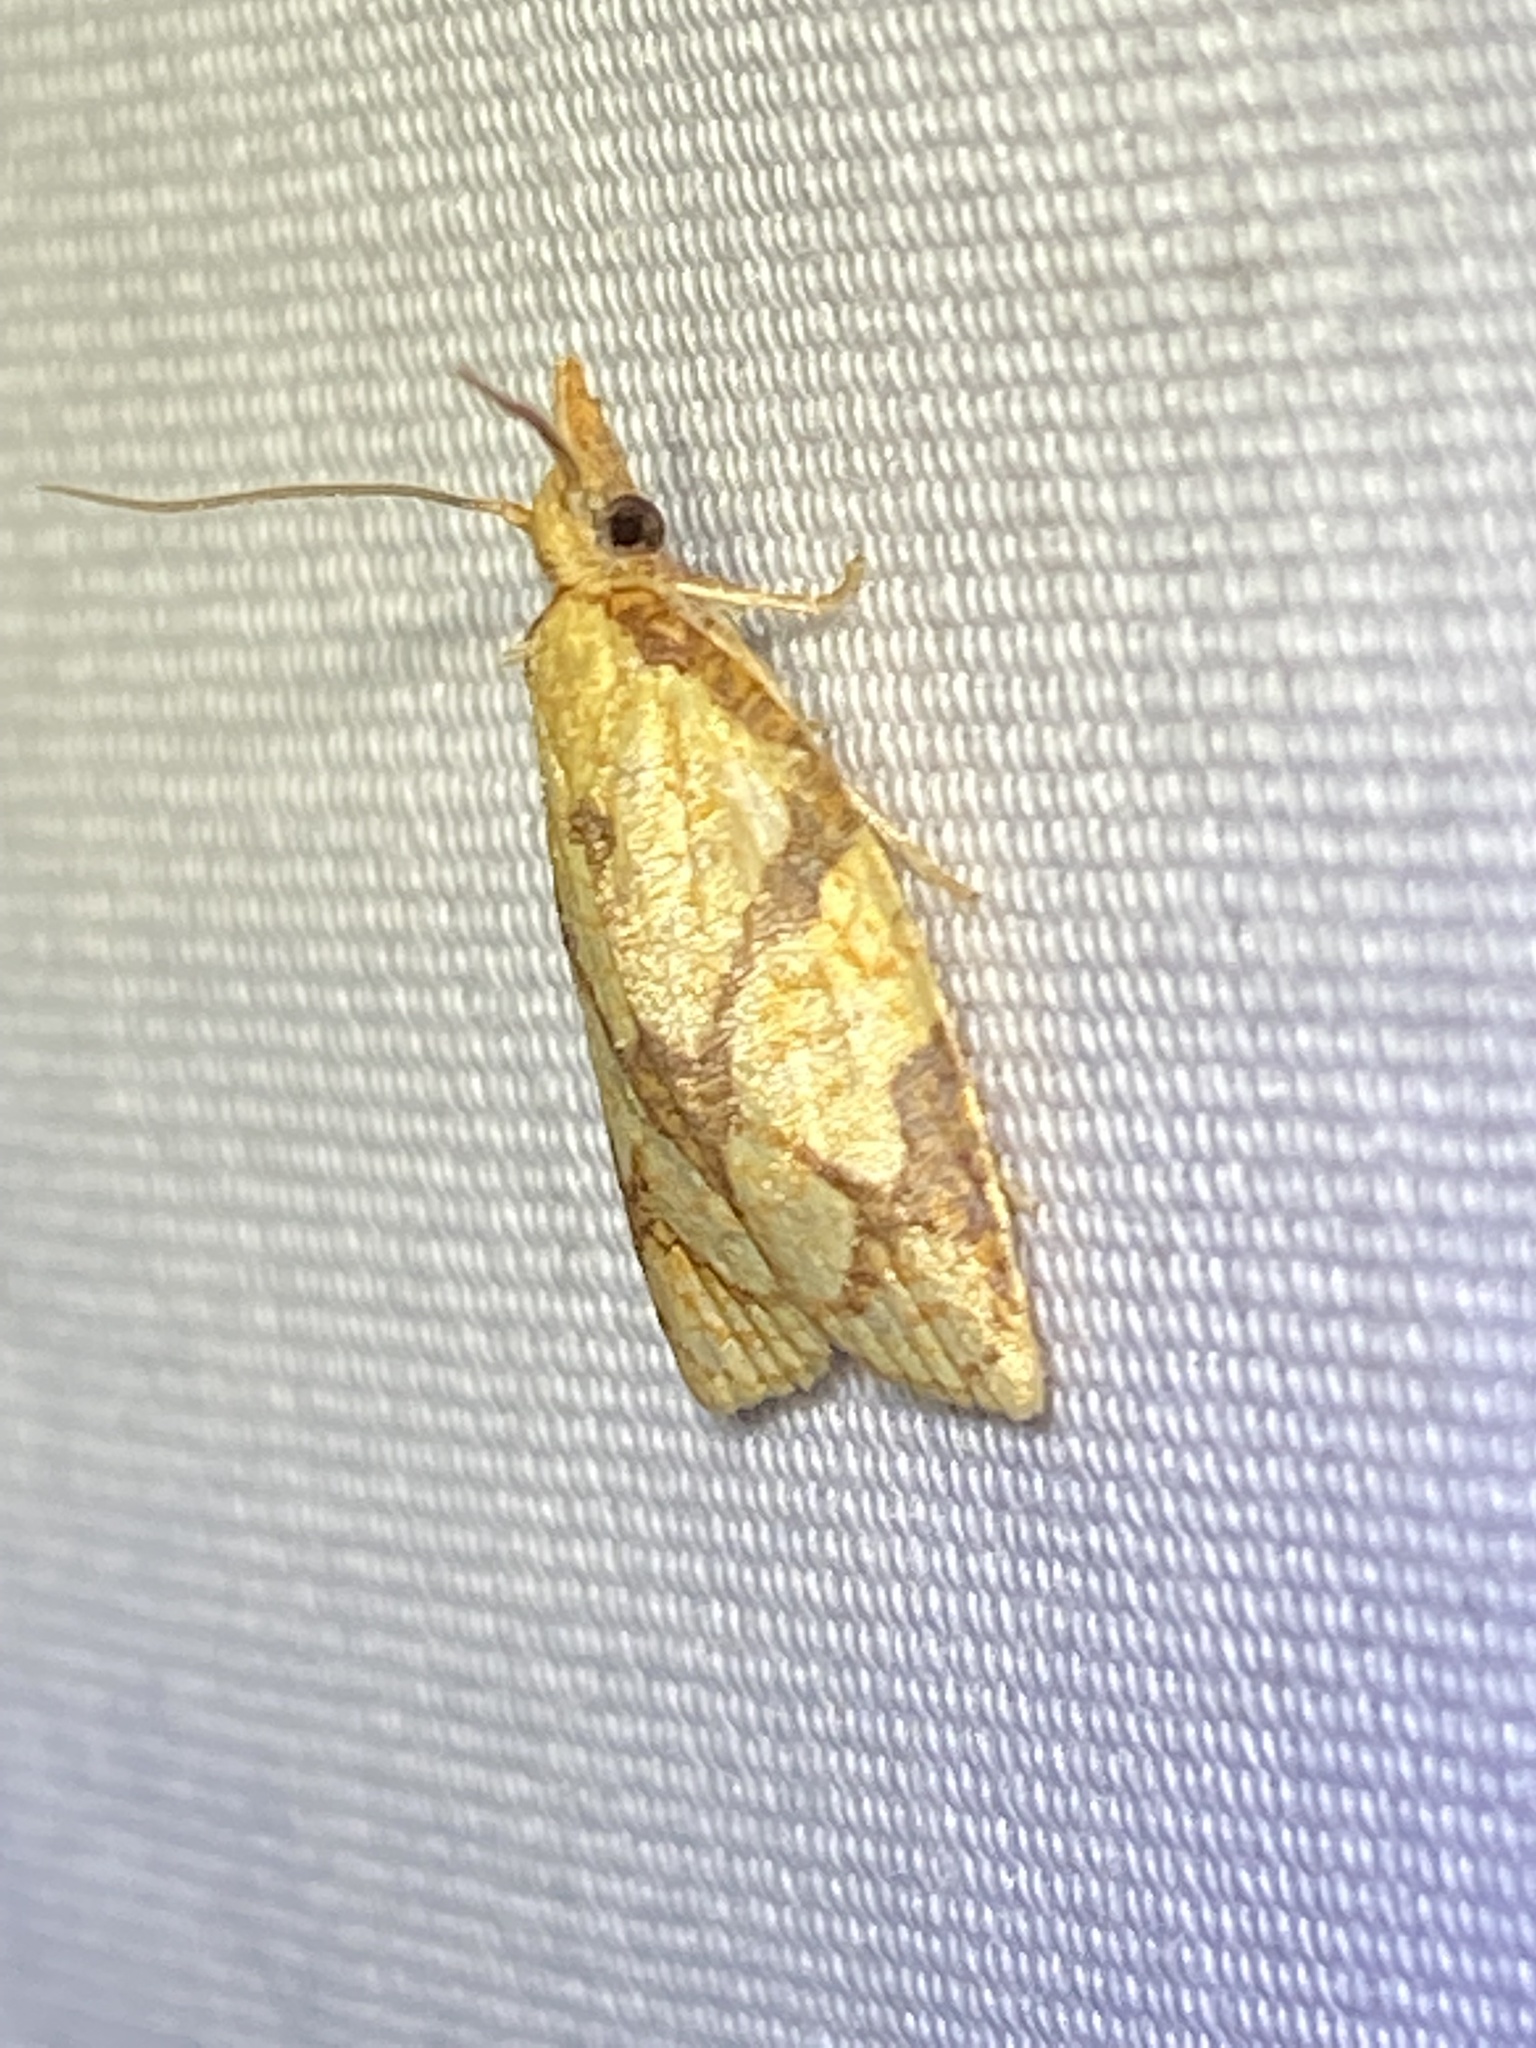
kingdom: Animalia
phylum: Arthropoda
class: Insecta
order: Lepidoptera
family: Tortricidae
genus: Cenopis
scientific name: Cenopis reticulatana
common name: Reticulated fruitworm moth
